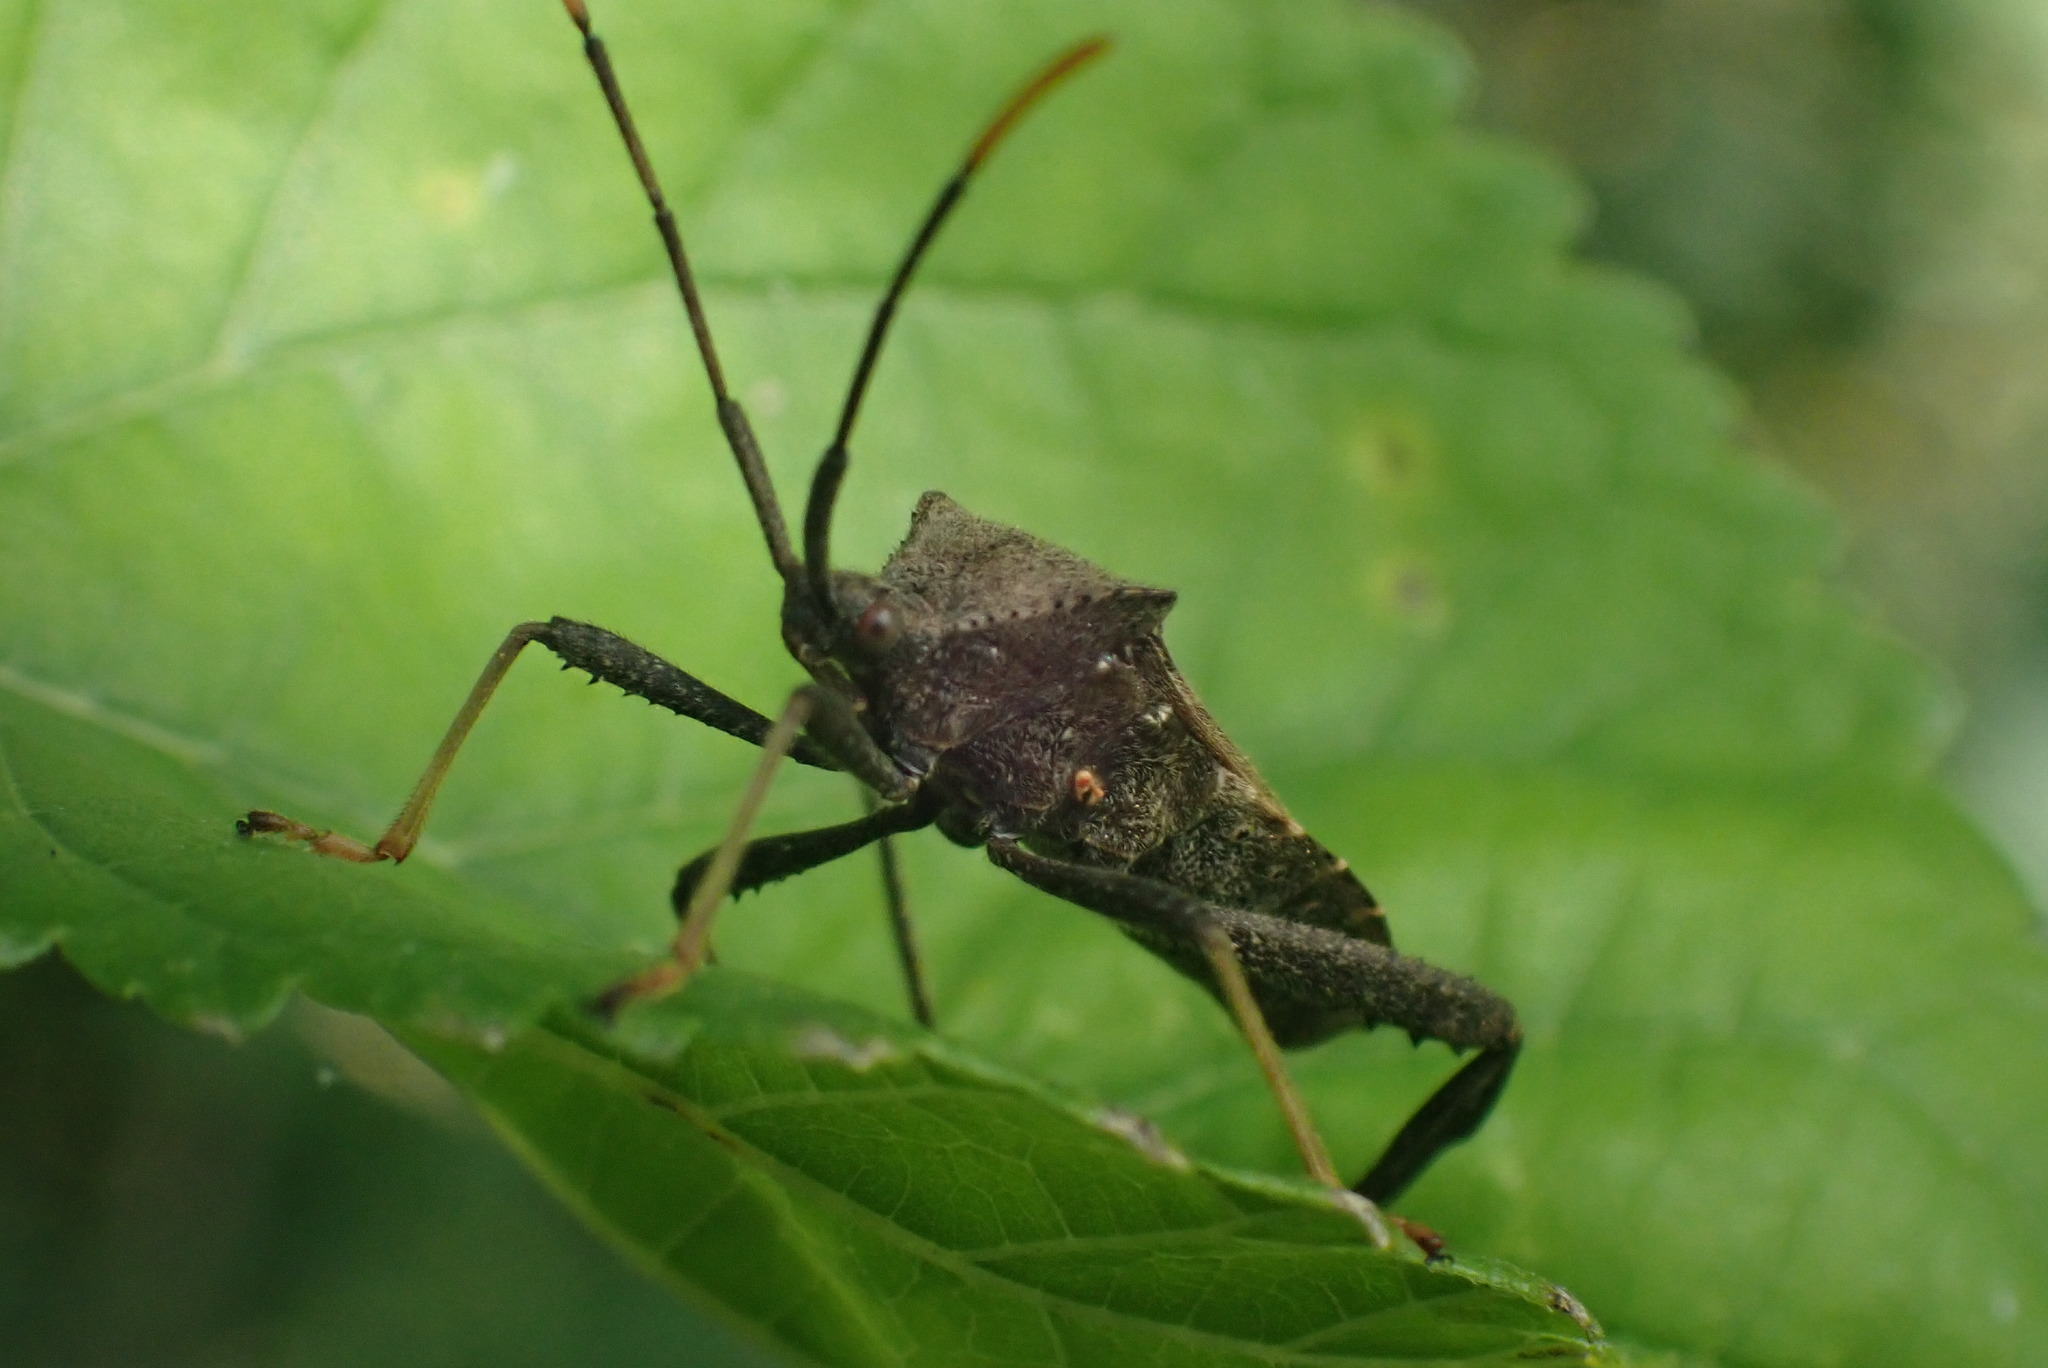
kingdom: Animalia
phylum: Arthropoda
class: Insecta
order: Hemiptera
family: Coreidae
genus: Acanthocephala
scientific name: Acanthocephala terminalis
